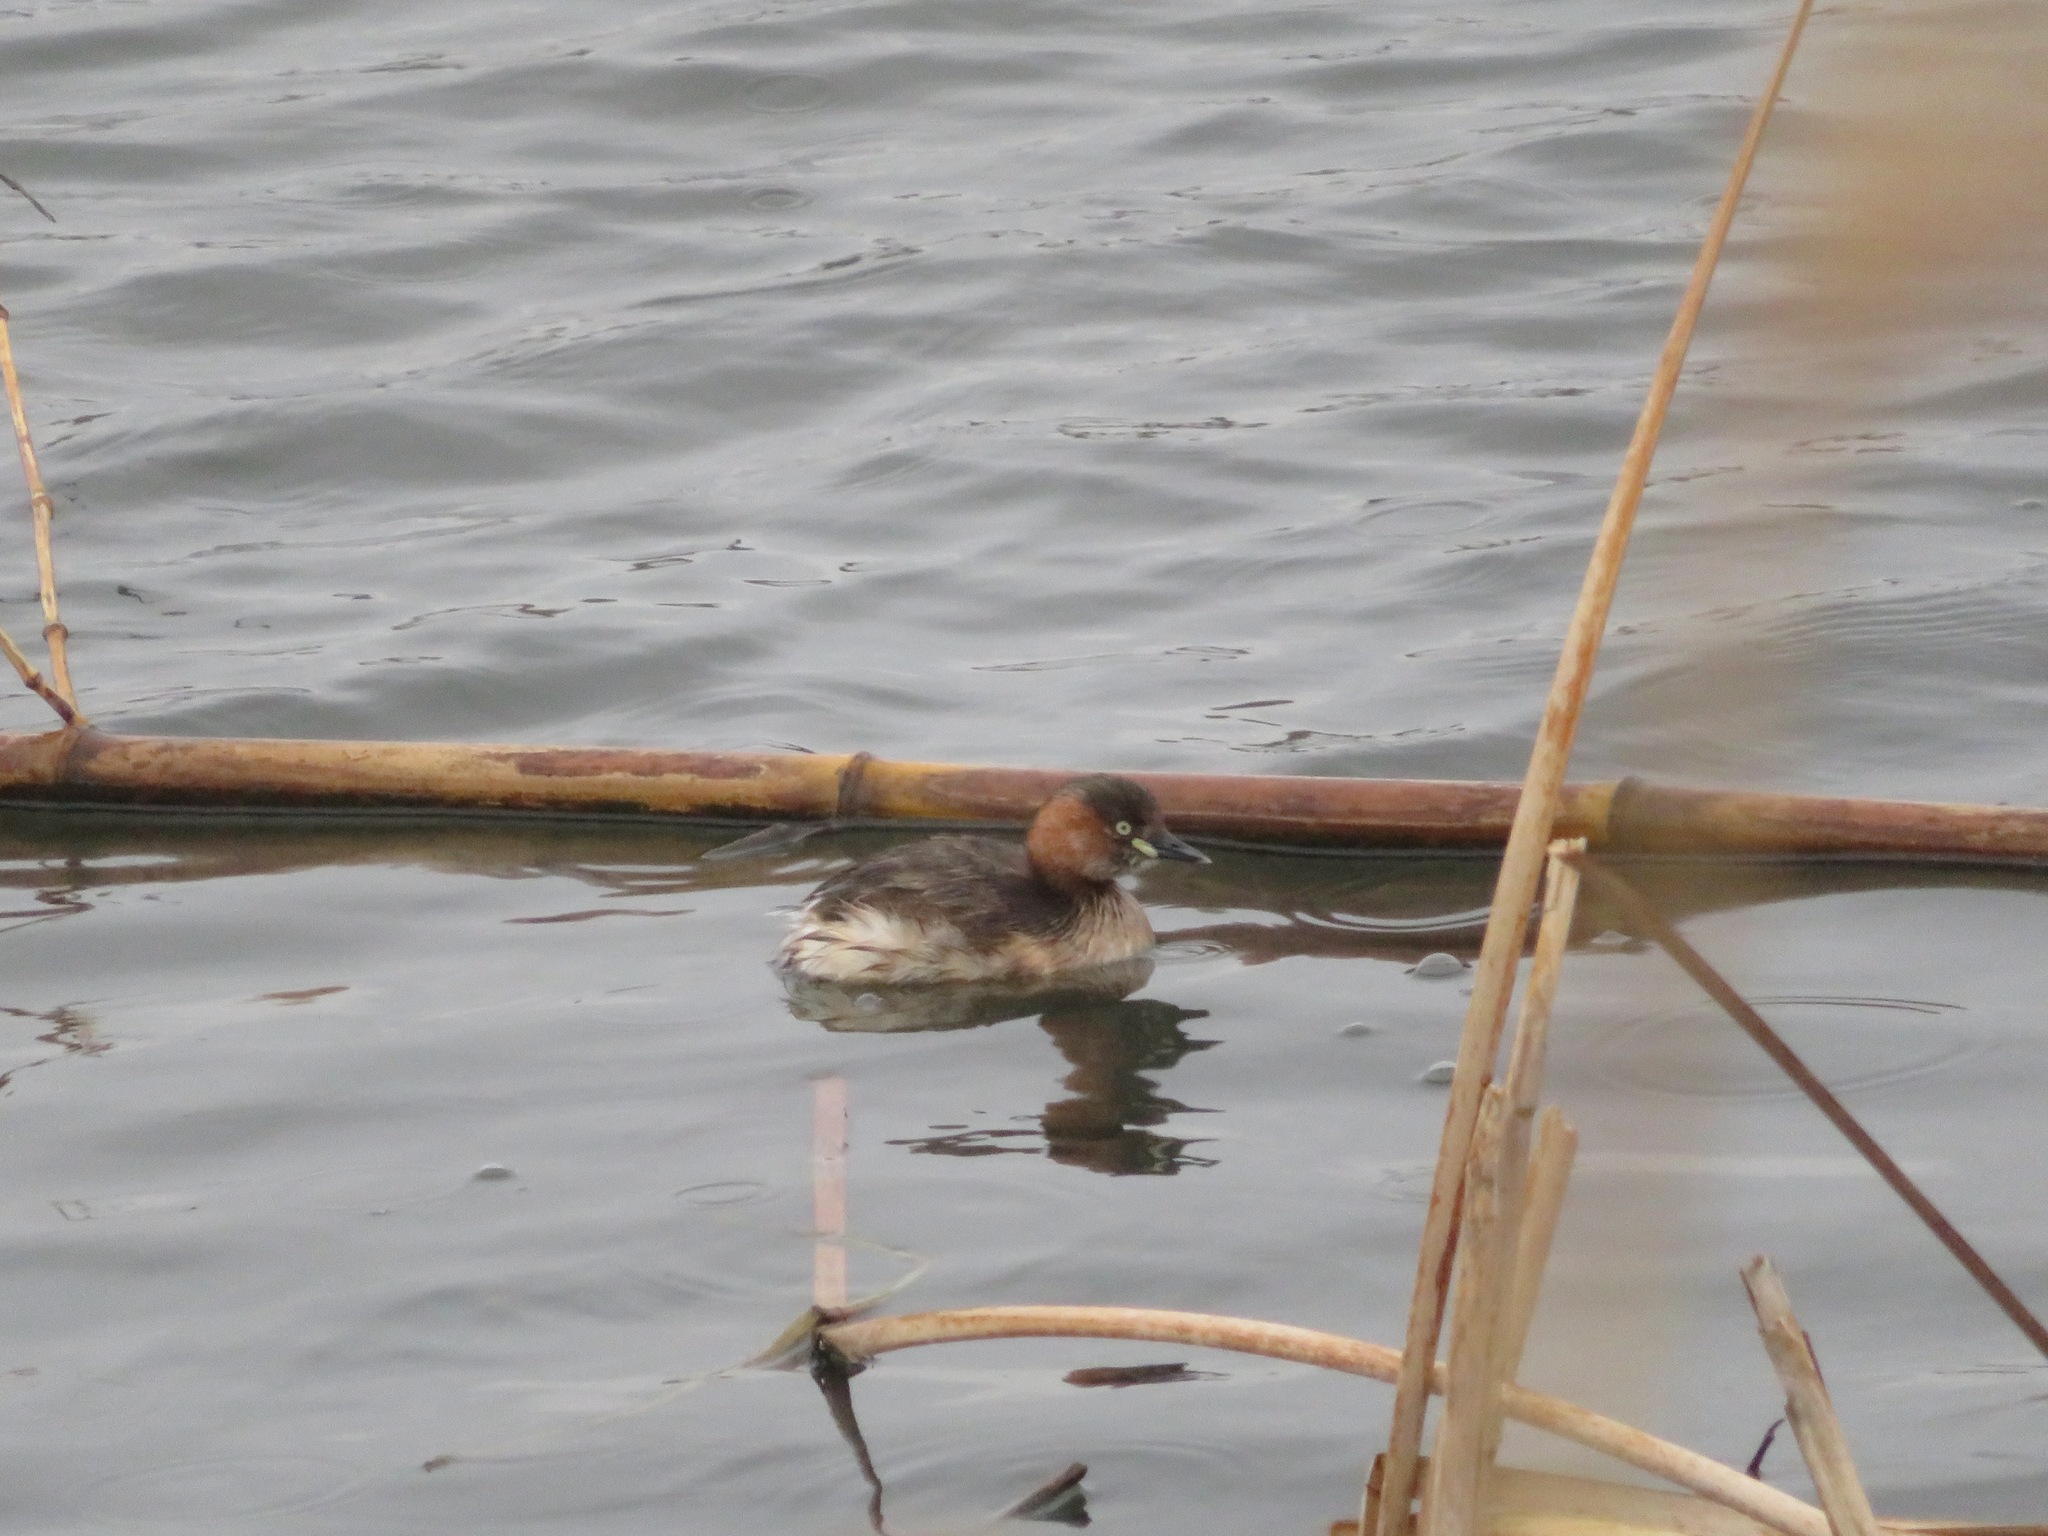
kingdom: Animalia
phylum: Chordata
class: Aves
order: Podicipediformes
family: Podicipedidae
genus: Tachybaptus
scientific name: Tachybaptus ruficollis
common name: Little grebe
